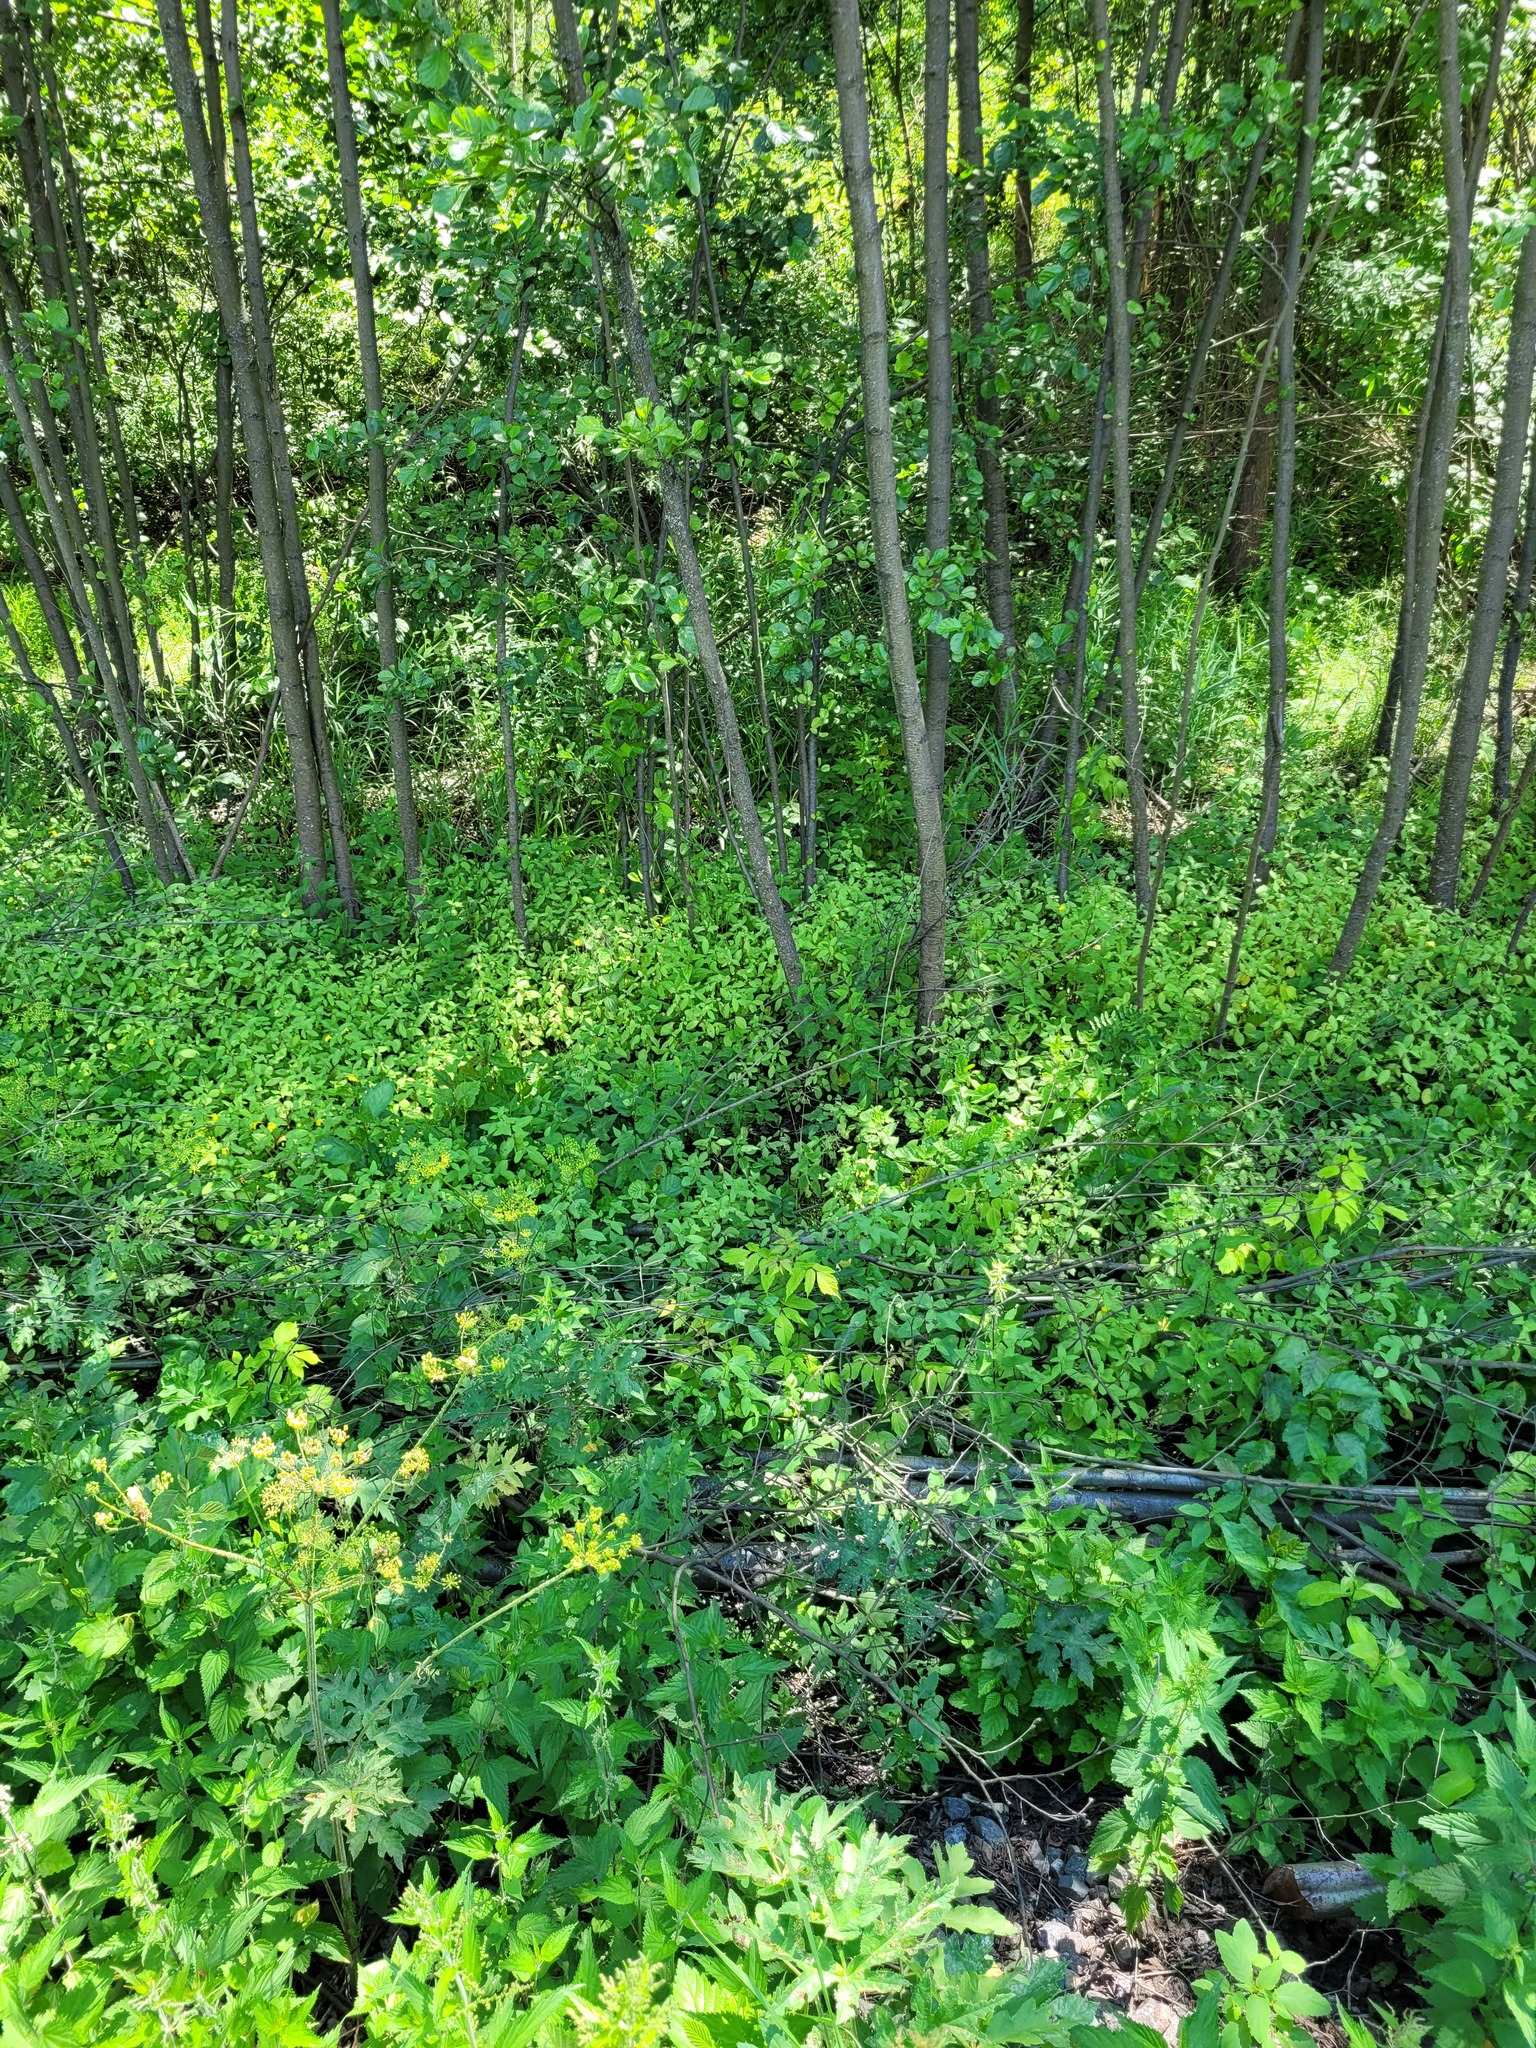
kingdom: Plantae
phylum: Tracheophyta
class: Magnoliopsida
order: Ericales
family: Balsaminaceae
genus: Impatiens
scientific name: Impatiens noli-tangere
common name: Touch-me-not balsam
